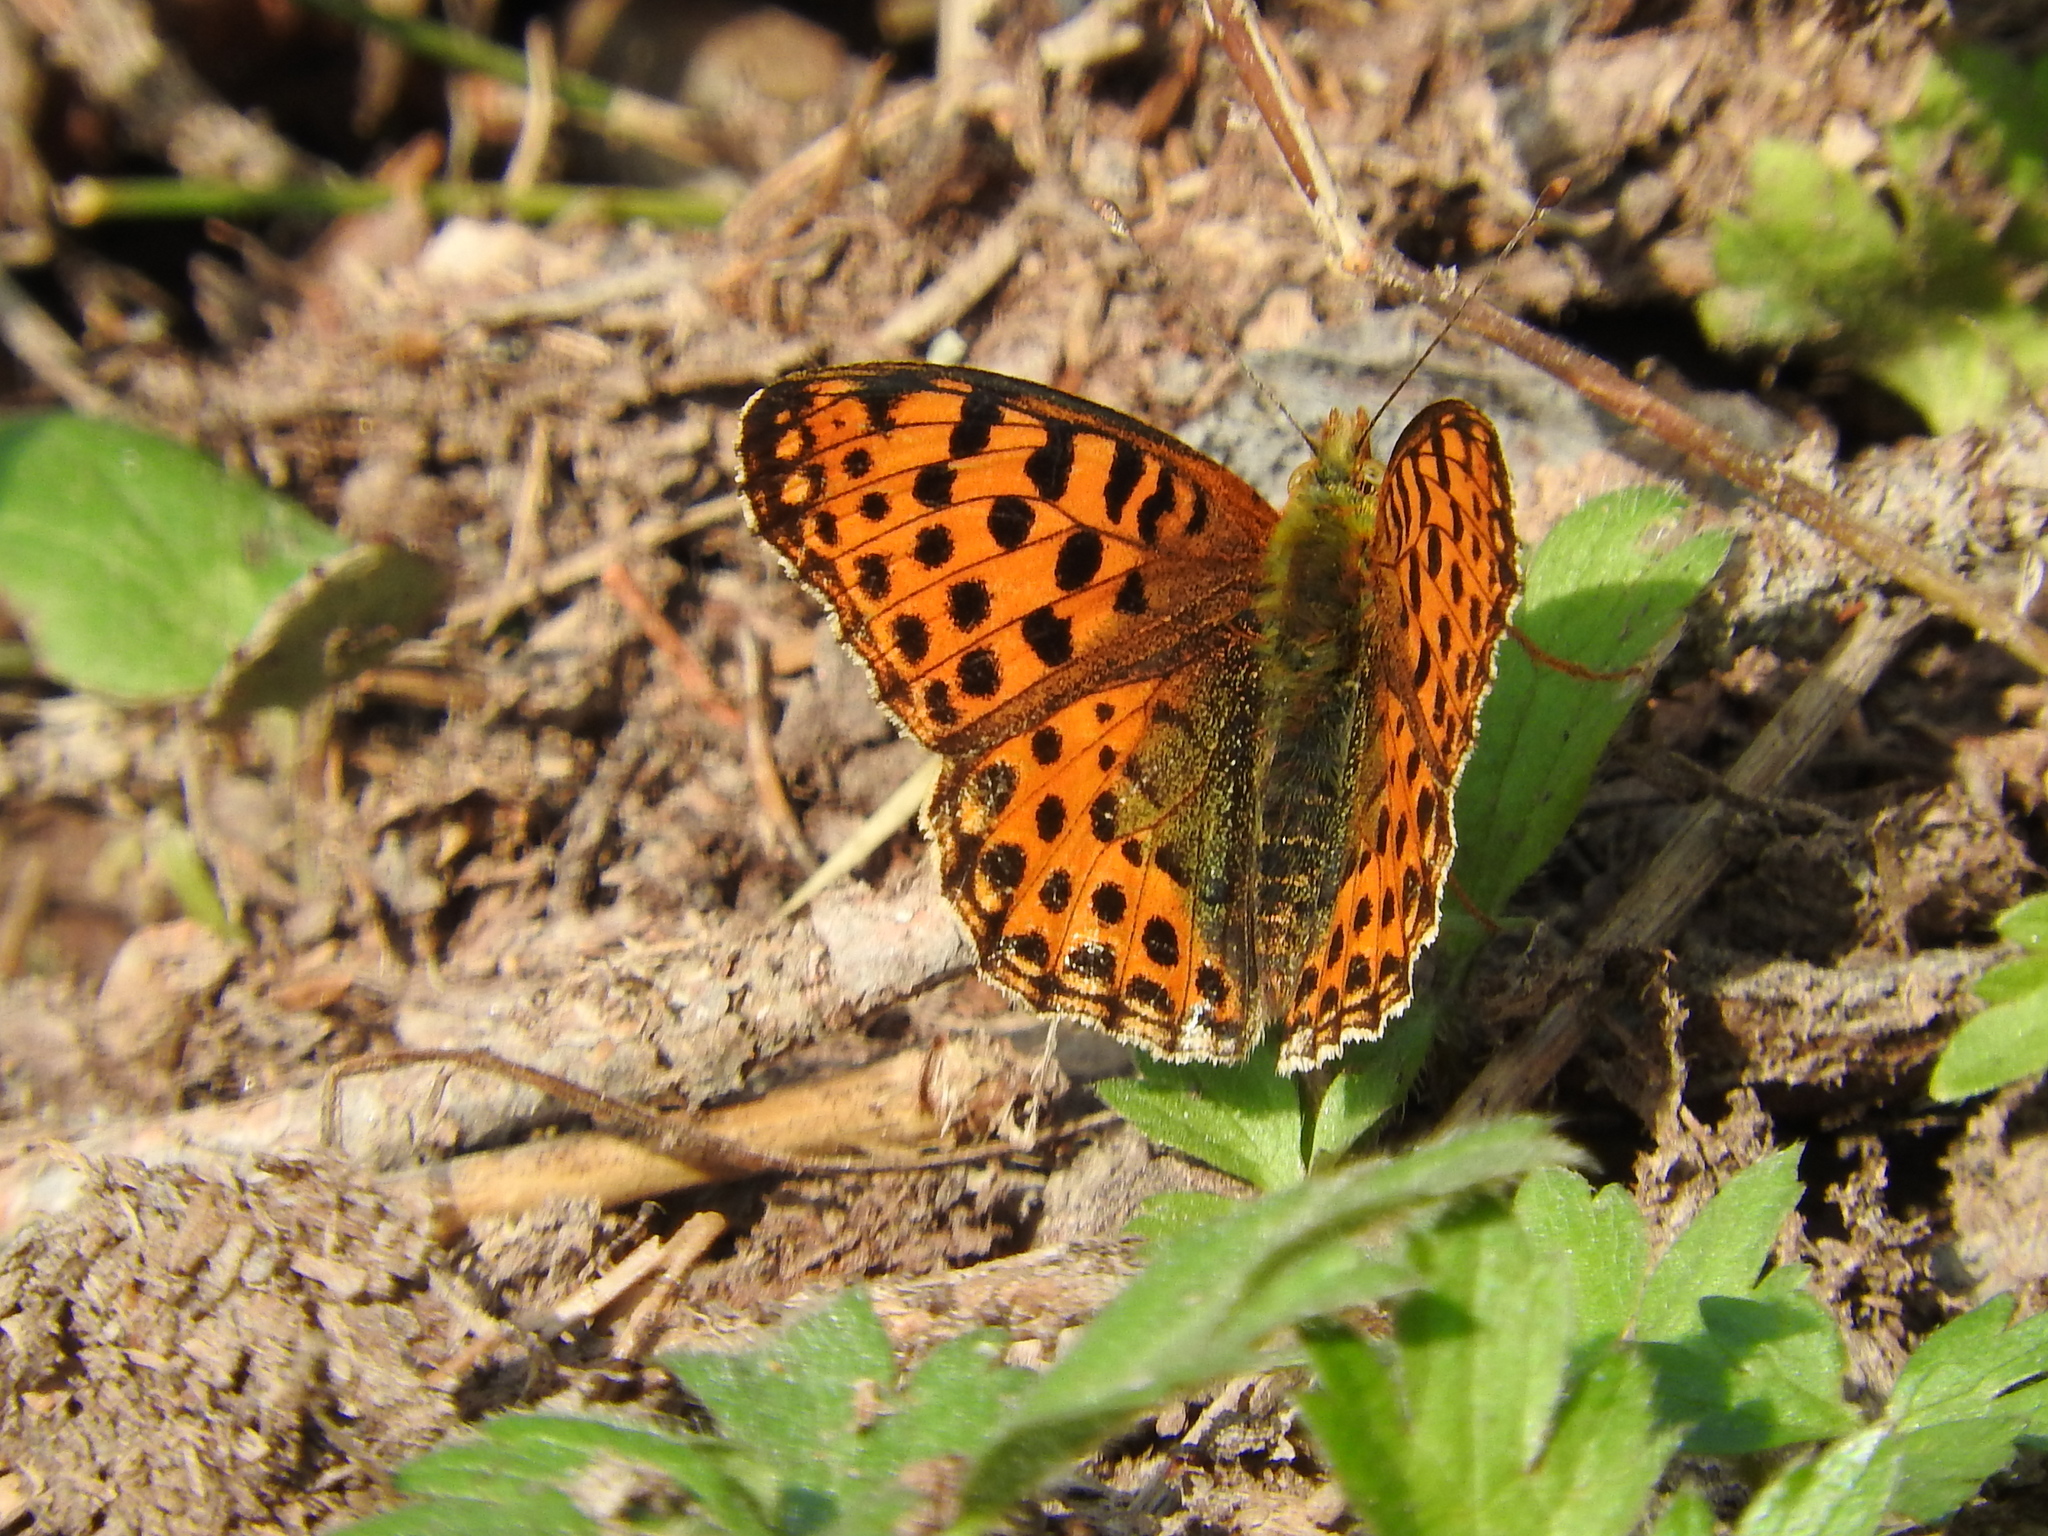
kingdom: Animalia
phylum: Arthropoda
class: Insecta
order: Lepidoptera
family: Nymphalidae
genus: Issoria
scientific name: Issoria lathonia
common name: Queen of spain fritillary
